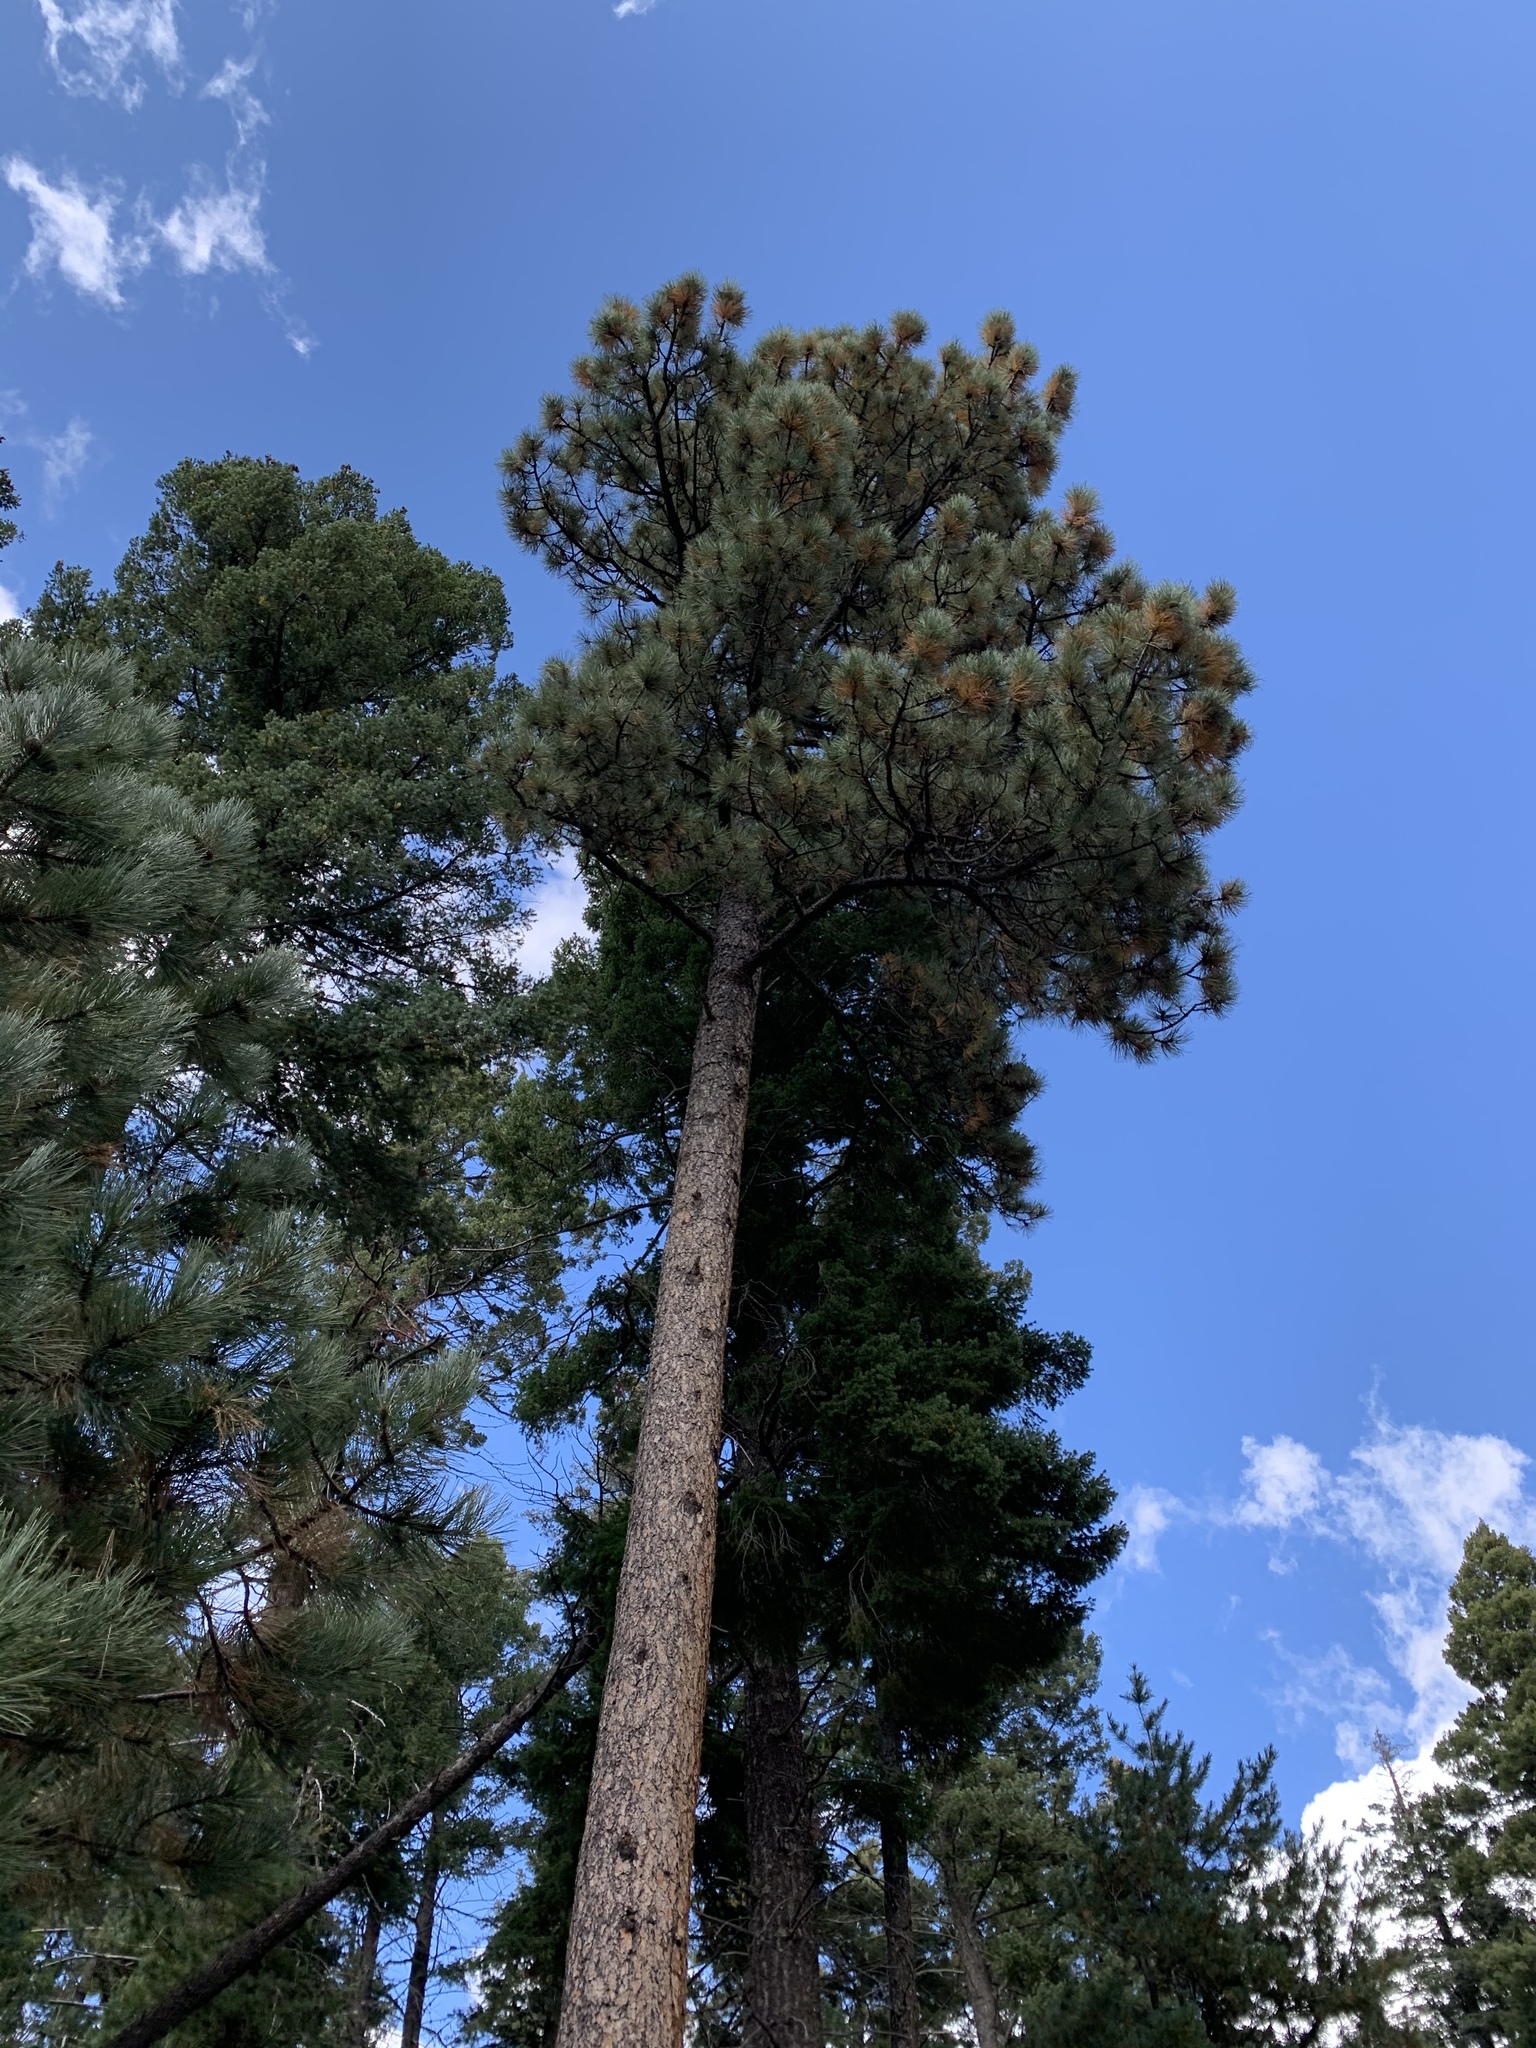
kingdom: Plantae
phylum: Tracheophyta
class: Pinopsida
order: Pinales
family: Pinaceae
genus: Pinus
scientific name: Pinus ponderosa
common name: Western yellow-pine
